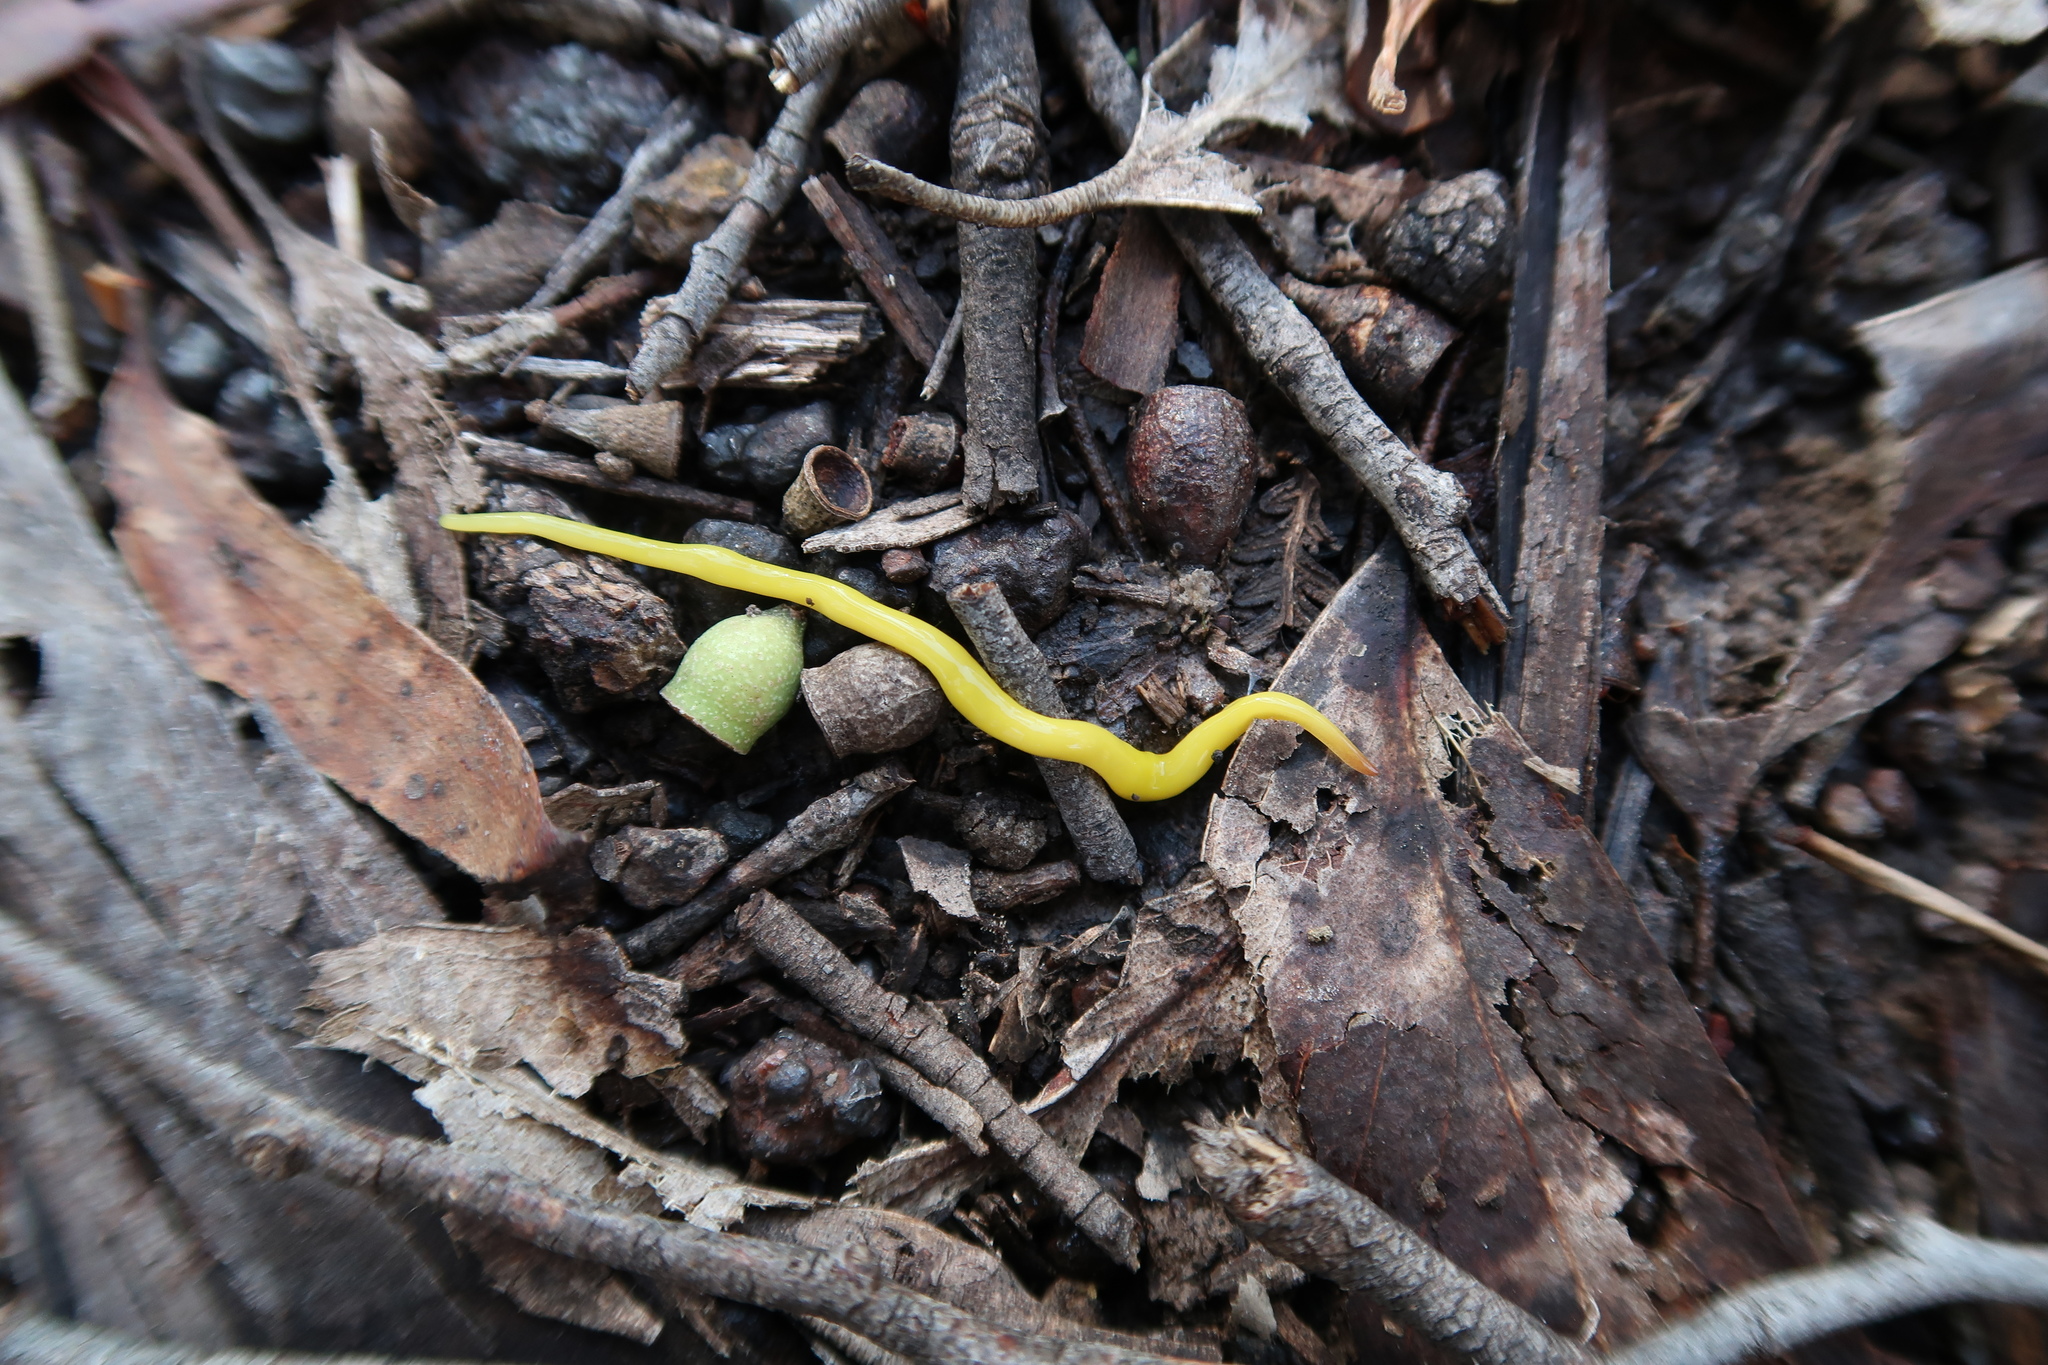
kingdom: Animalia
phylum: Platyhelminthes
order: Tricladida
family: Geoplanidae
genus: Fletchamia
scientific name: Fletchamia sugdeni
